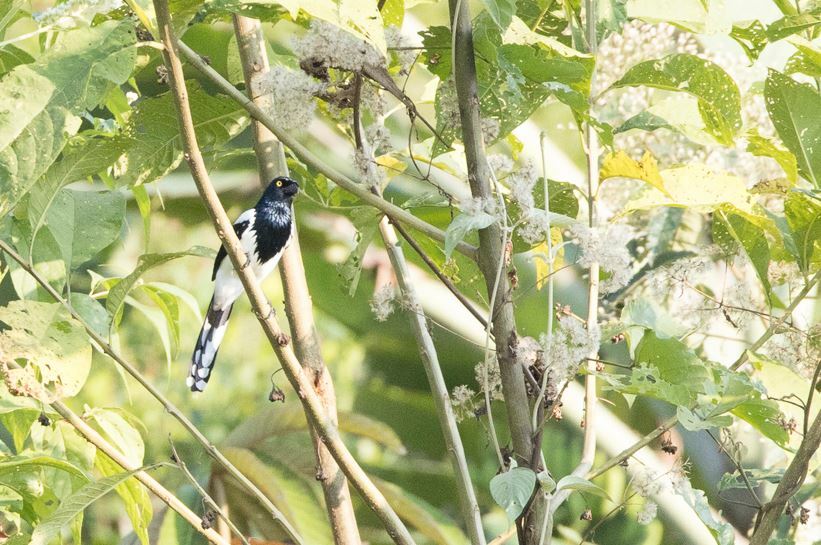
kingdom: Animalia
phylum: Chordata
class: Aves
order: Passeriformes
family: Thraupidae
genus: Cissopis
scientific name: Cissopis leverianus
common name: Magpie tanager
